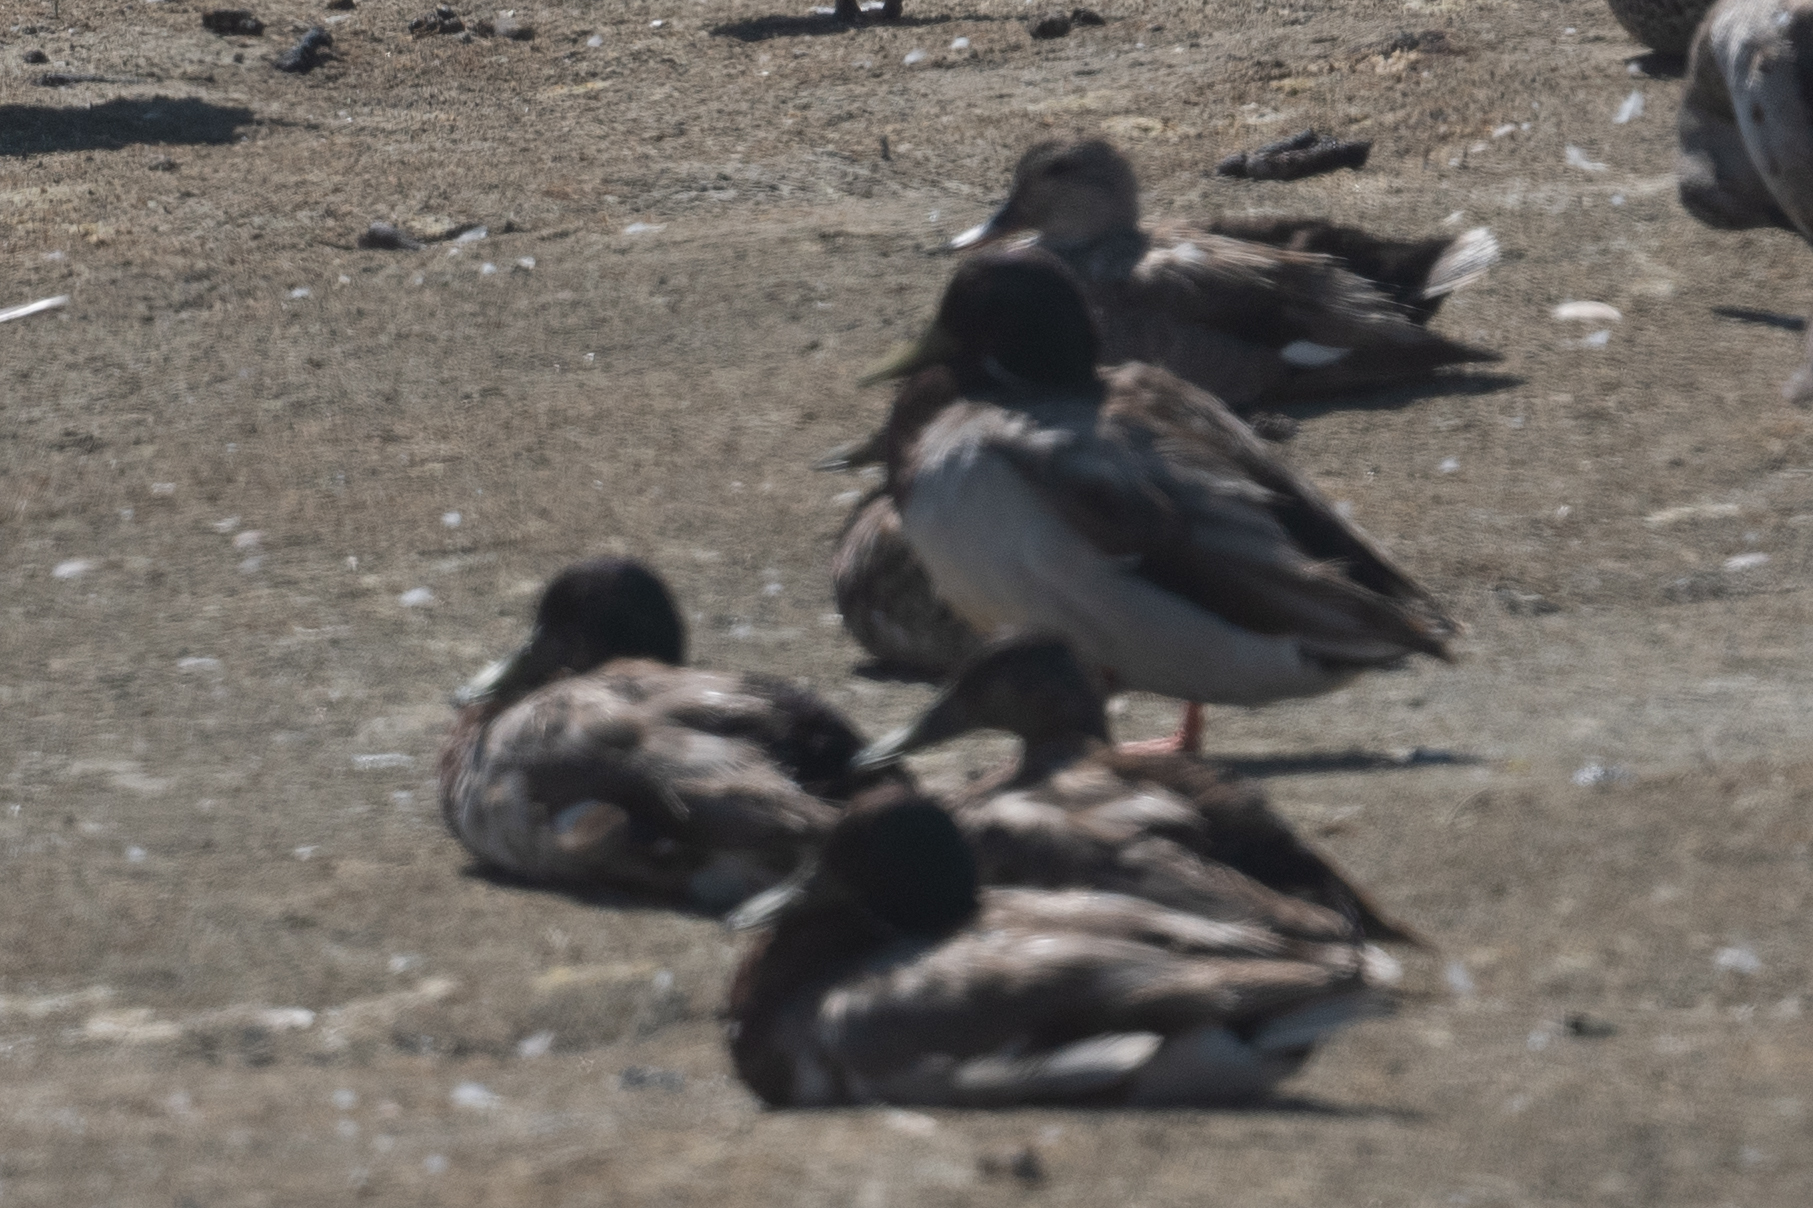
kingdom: Animalia
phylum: Chordata
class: Aves
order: Anseriformes
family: Anatidae
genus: Anas
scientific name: Anas platyrhynchos
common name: Mallard
